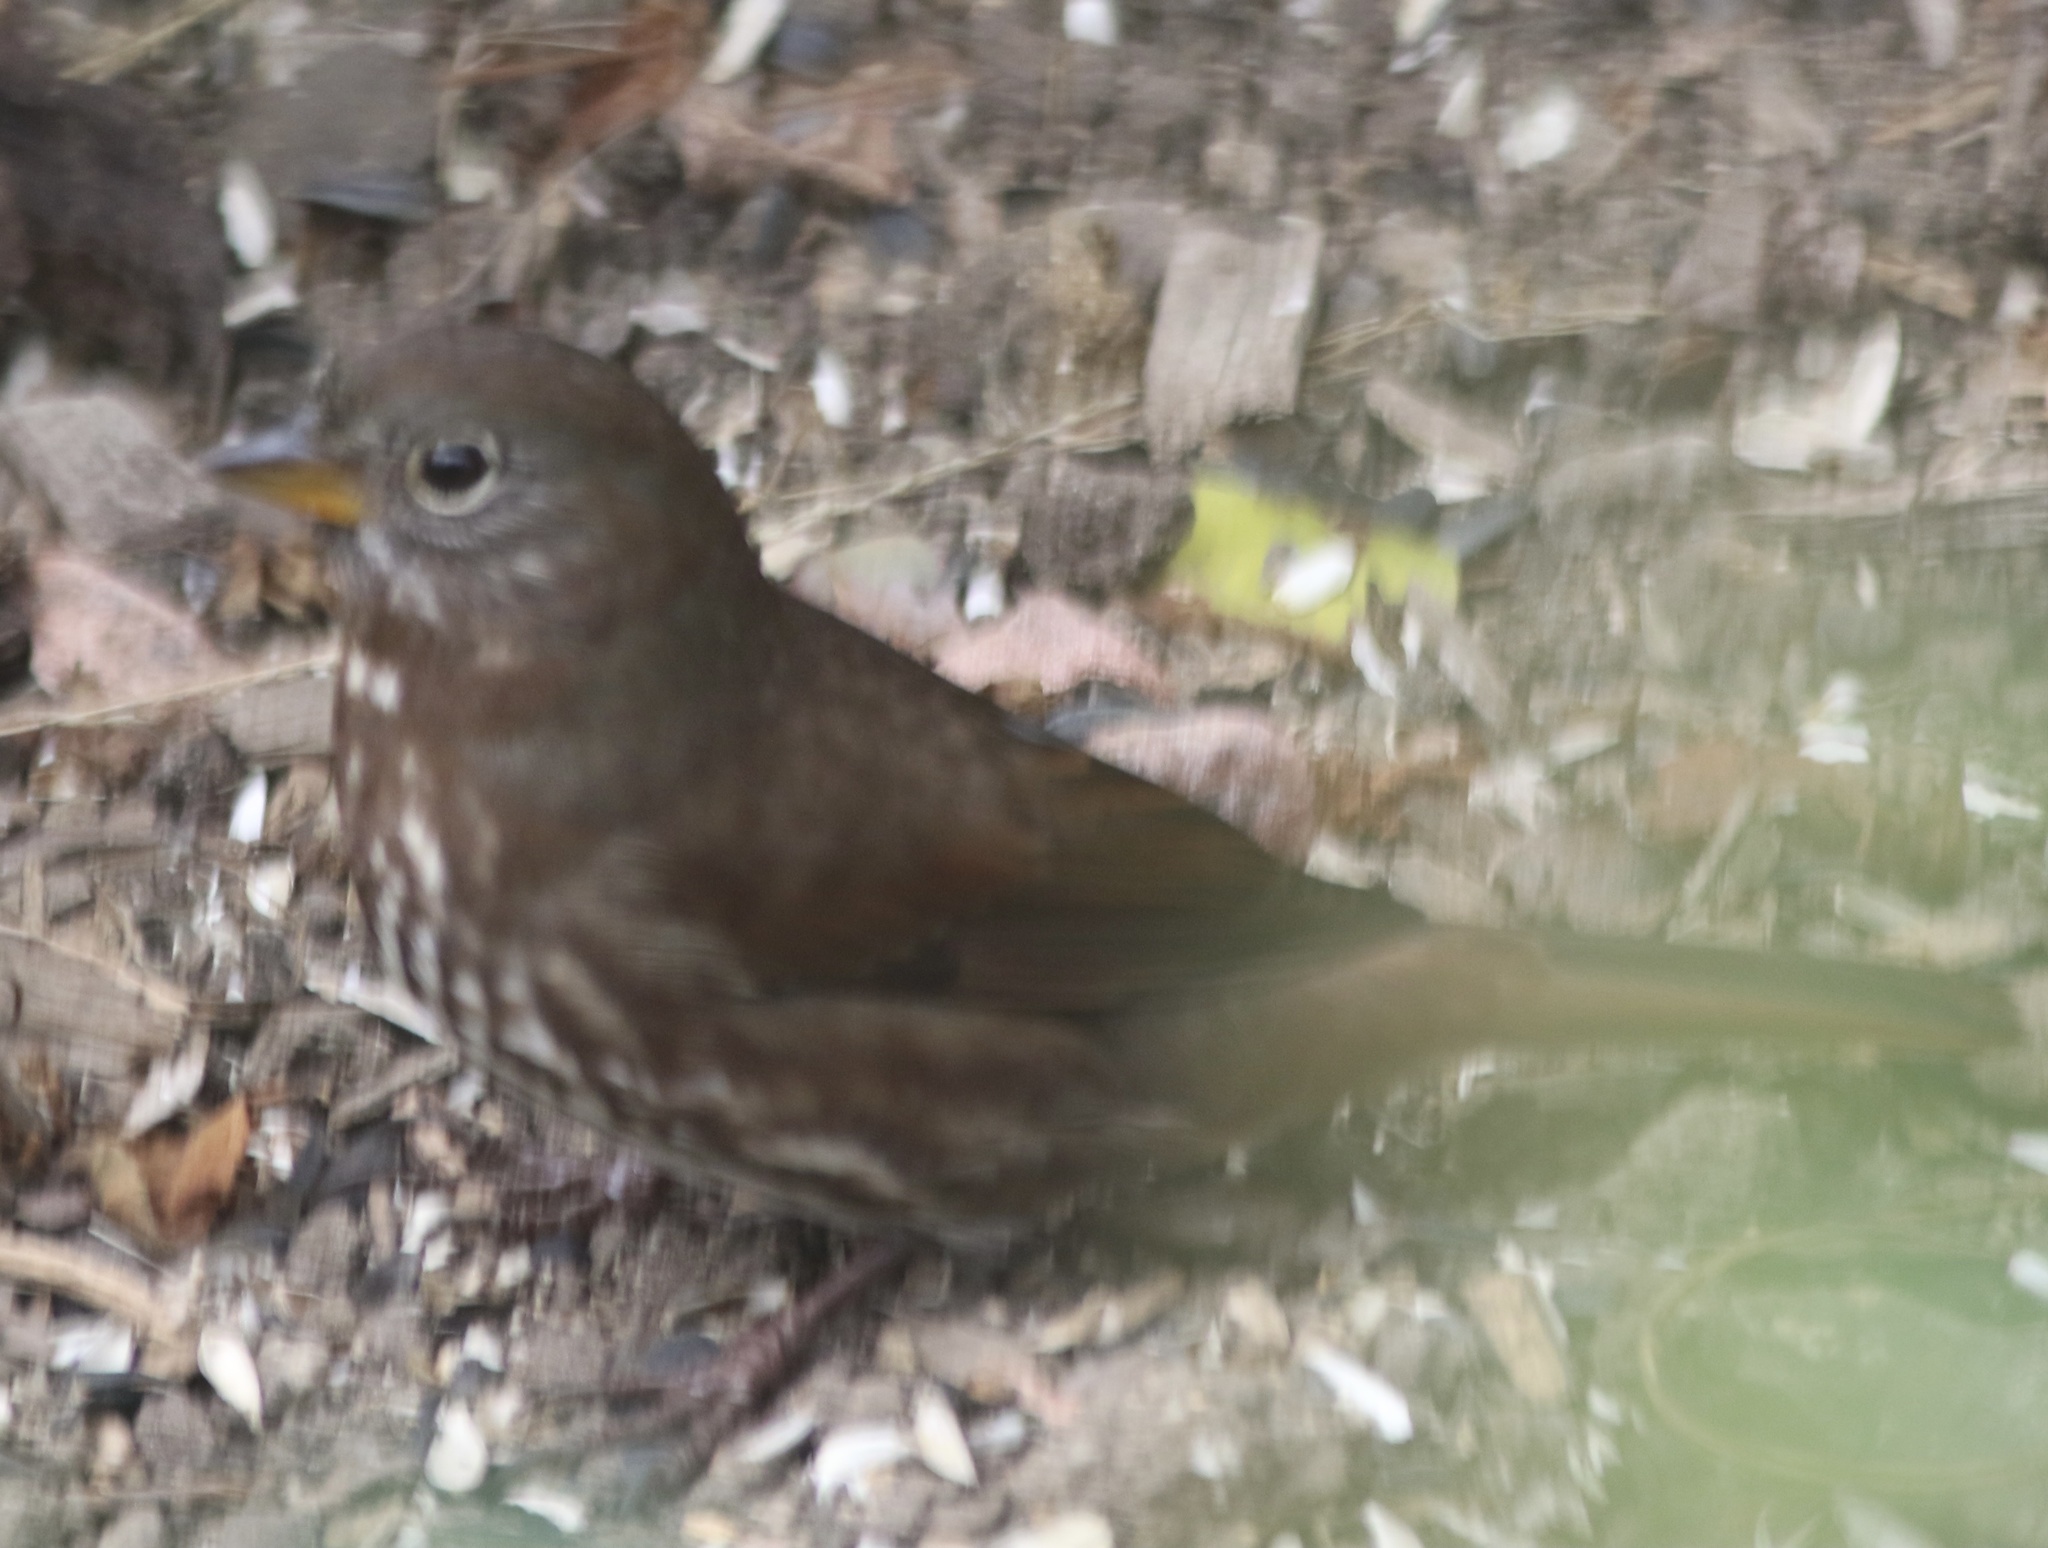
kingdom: Animalia
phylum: Chordata
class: Aves
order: Passeriformes
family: Passerellidae
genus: Passerella
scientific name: Passerella iliaca
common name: Fox sparrow
